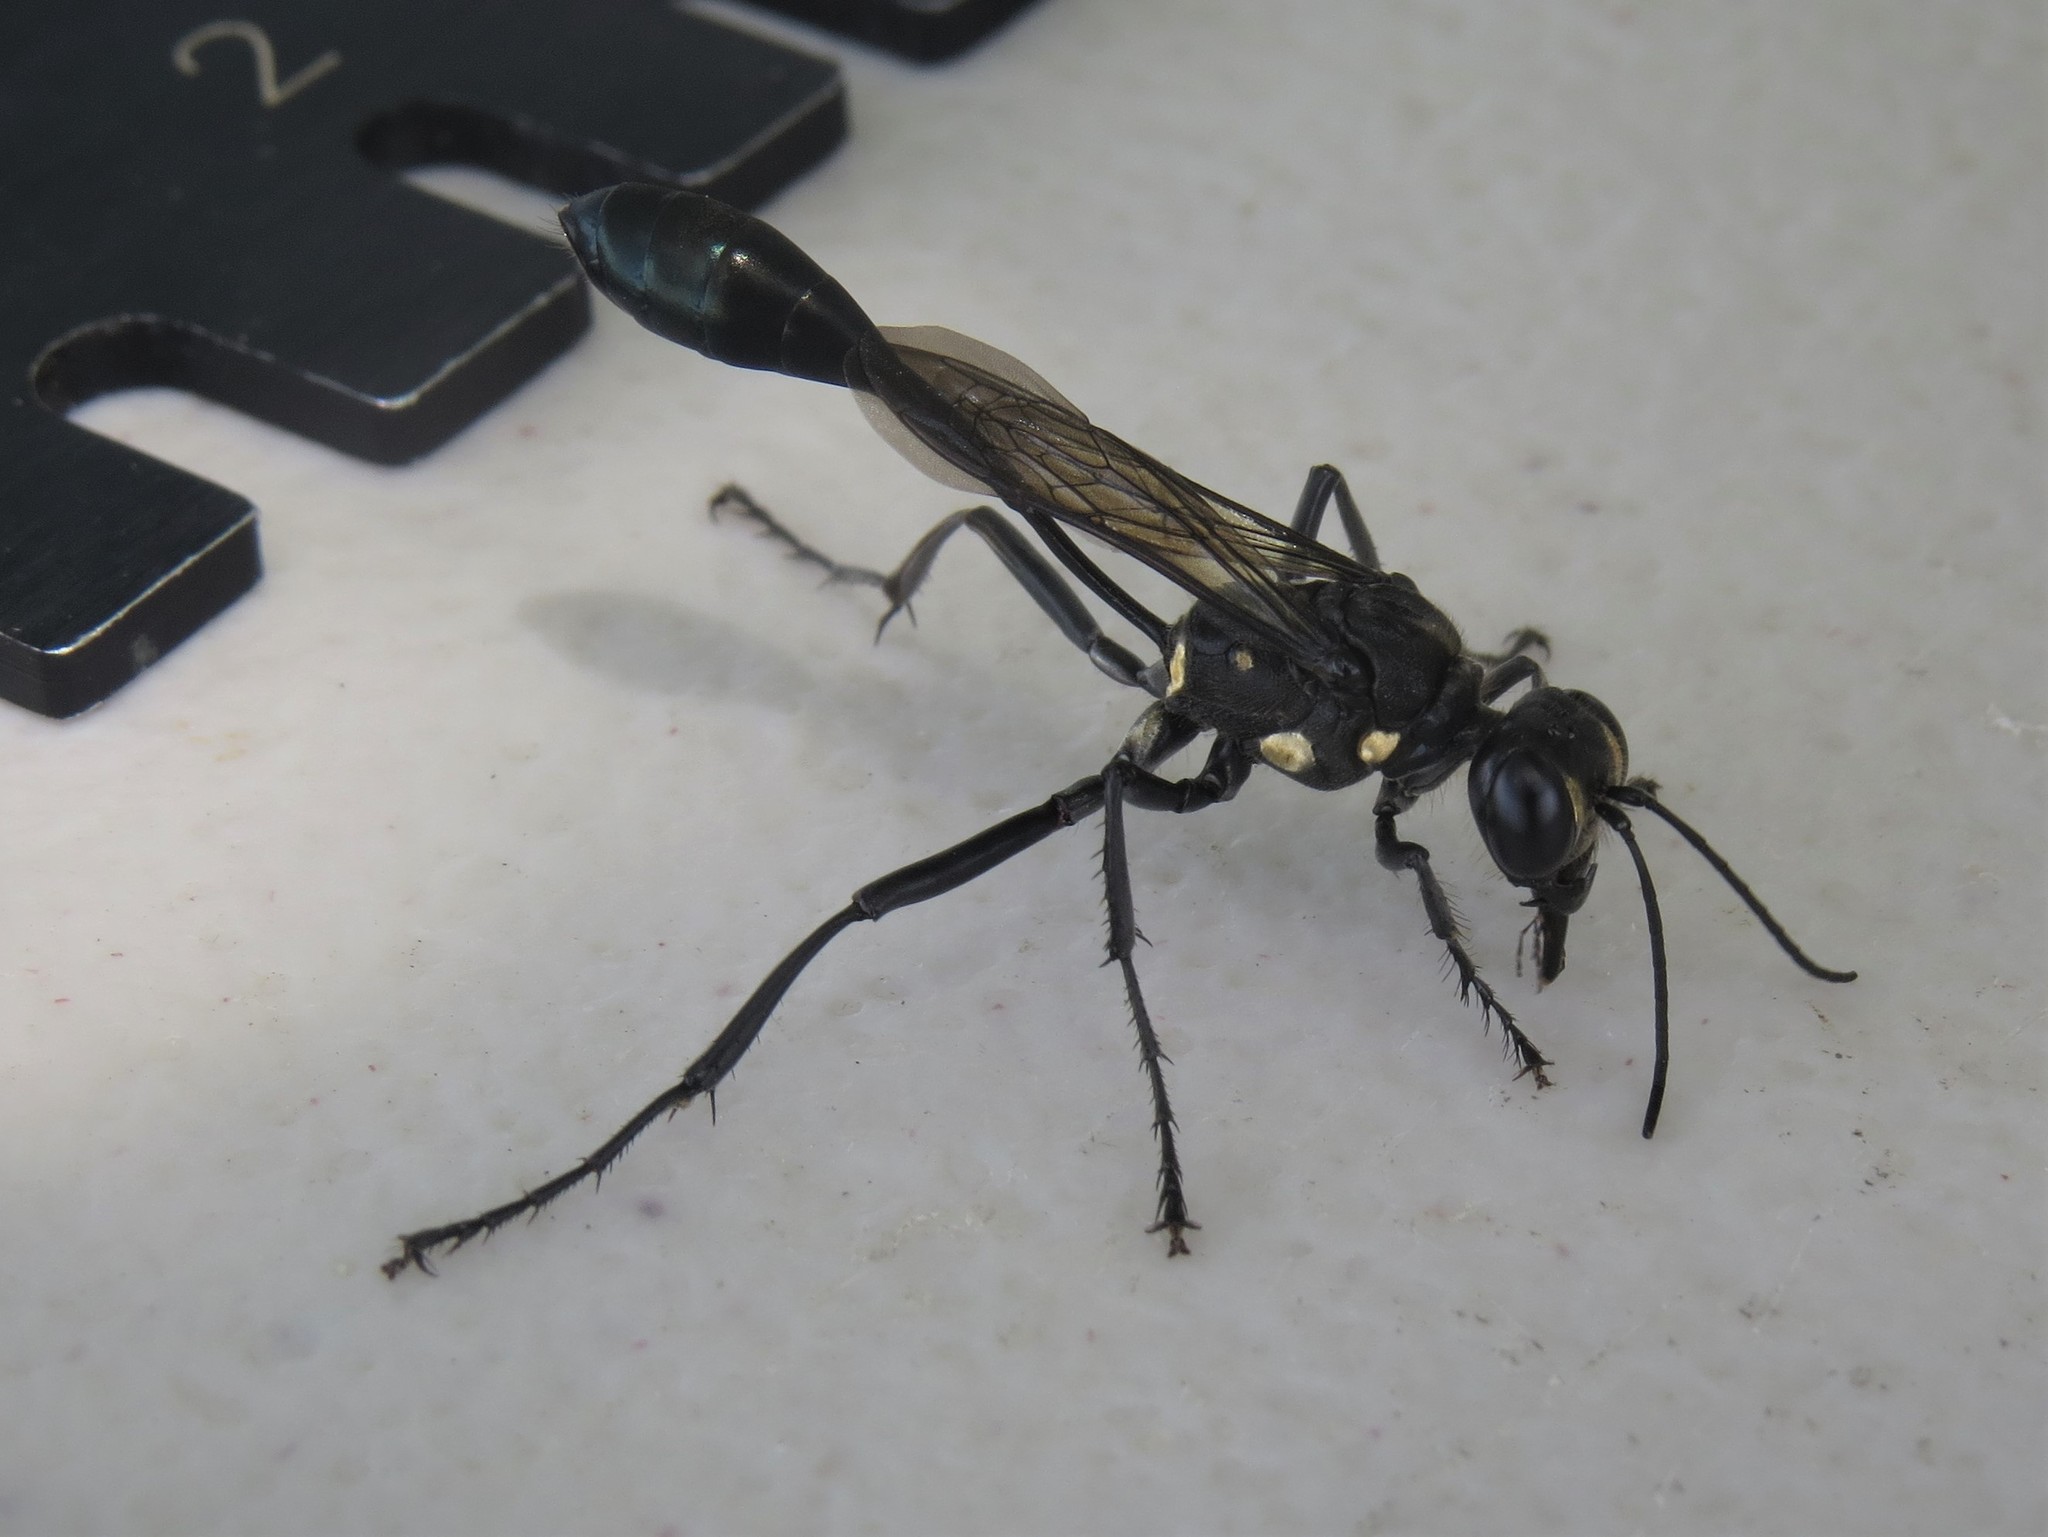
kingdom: Animalia
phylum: Arthropoda
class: Insecta
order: Hymenoptera
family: Sphecidae
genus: Eremnophila
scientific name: Eremnophila aureonotata
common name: Gold-marked thread-waisted wasp
